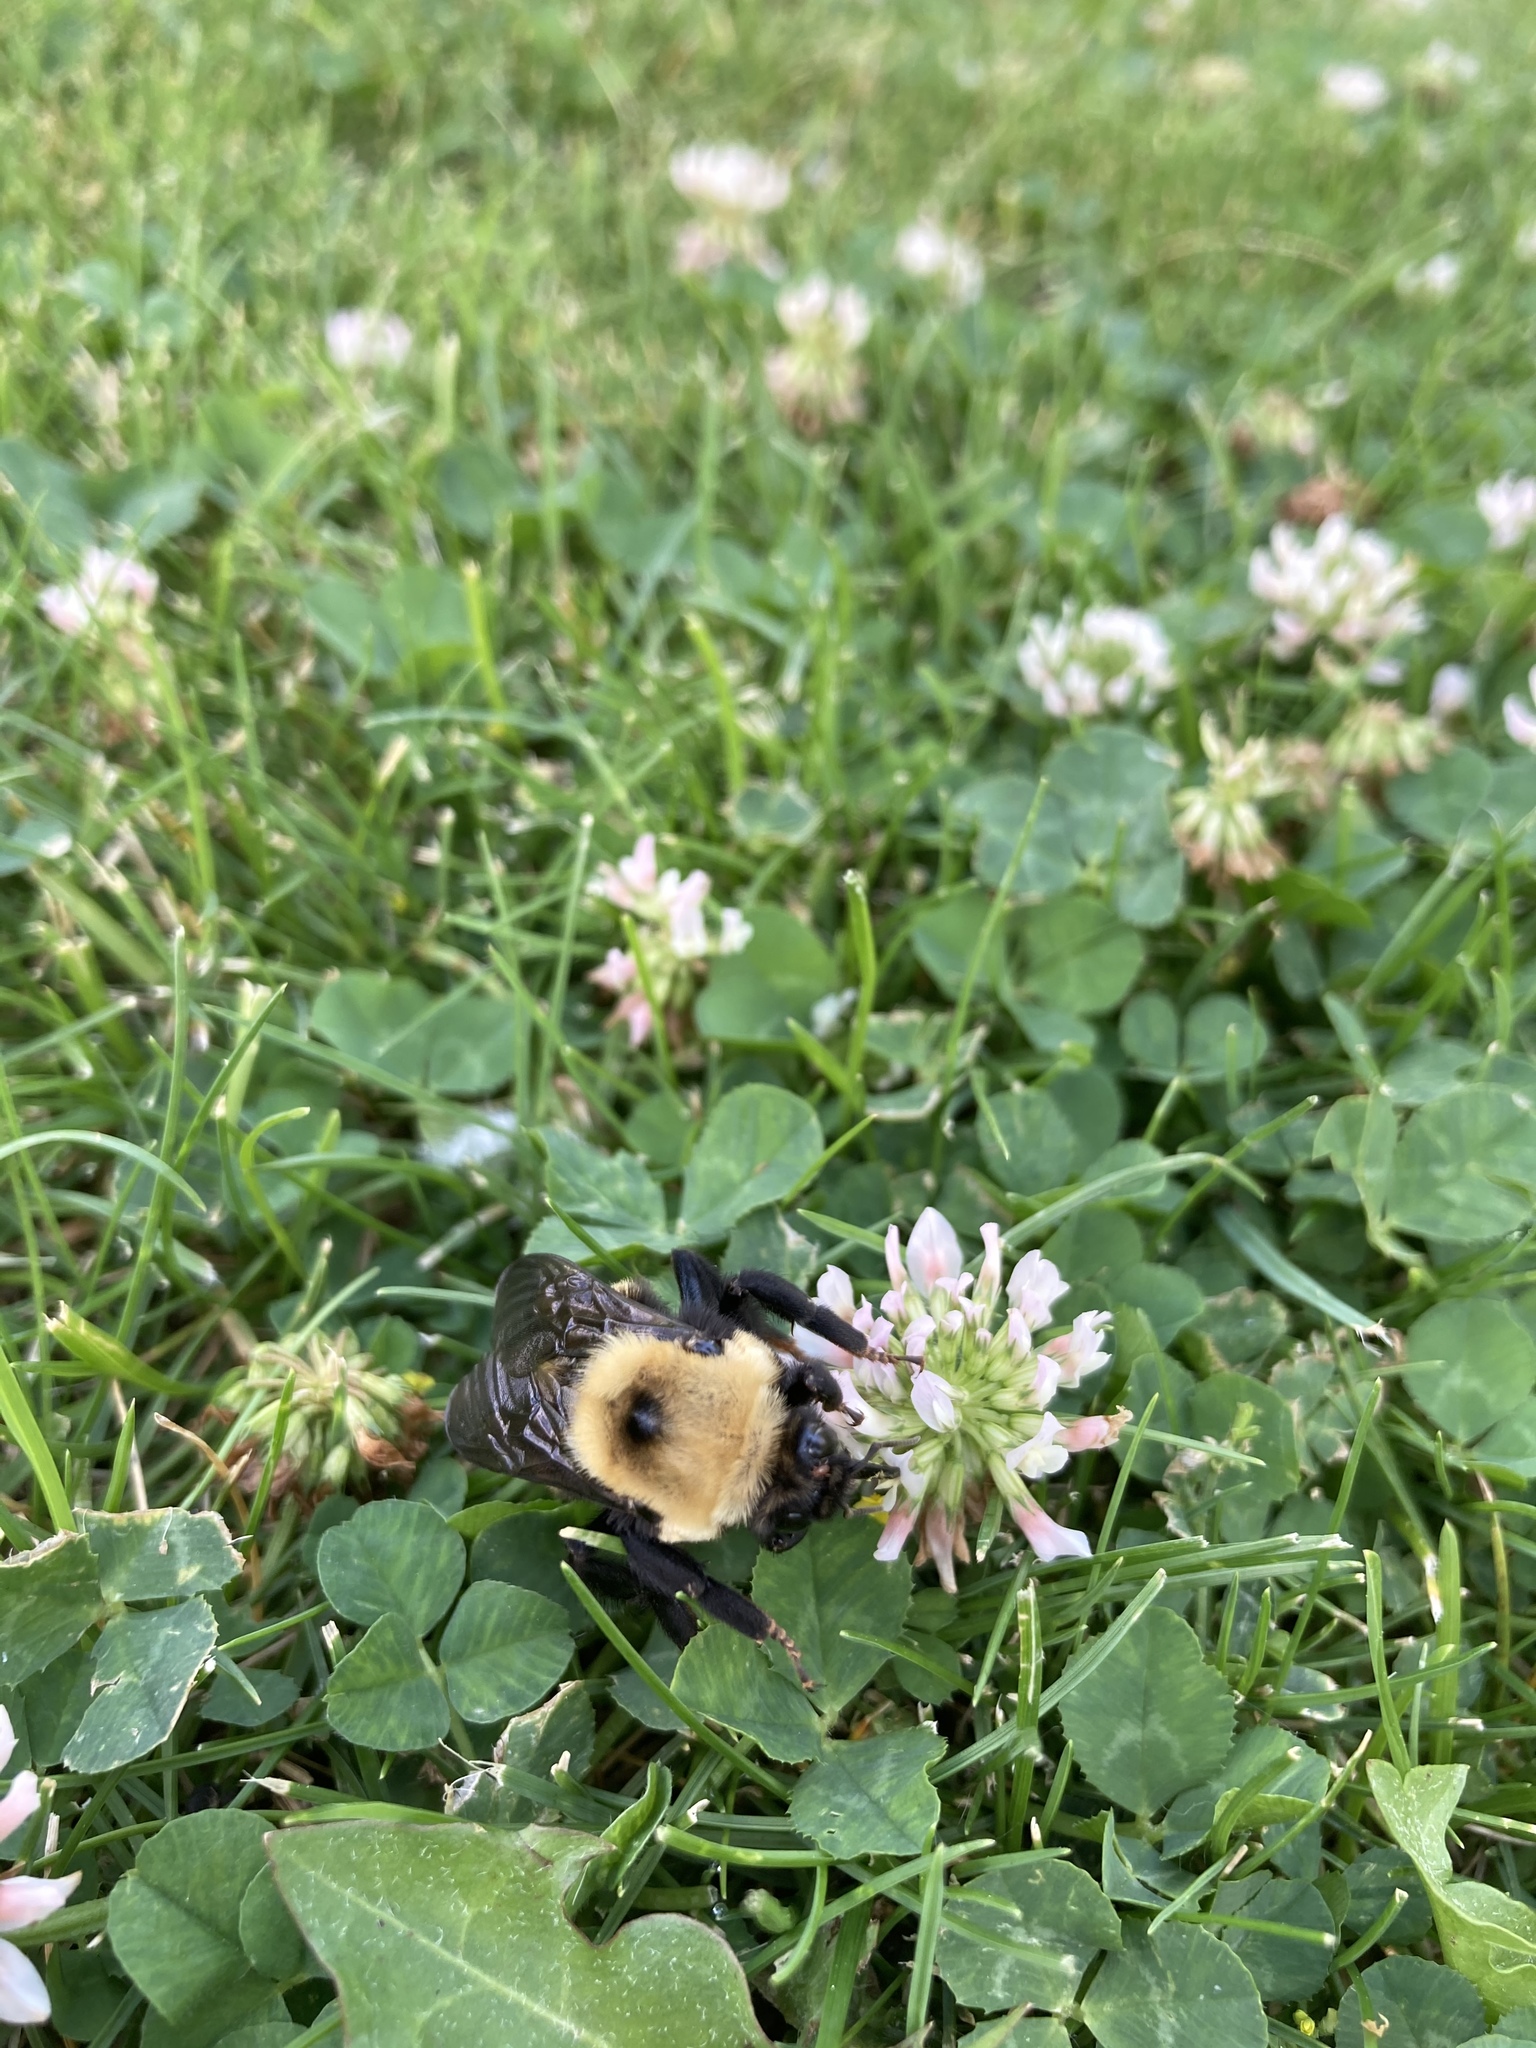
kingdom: Animalia
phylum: Arthropoda
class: Insecta
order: Hymenoptera
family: Apidae
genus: Bombus
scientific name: Bombus nevadensis
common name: Nevada bumble bee
